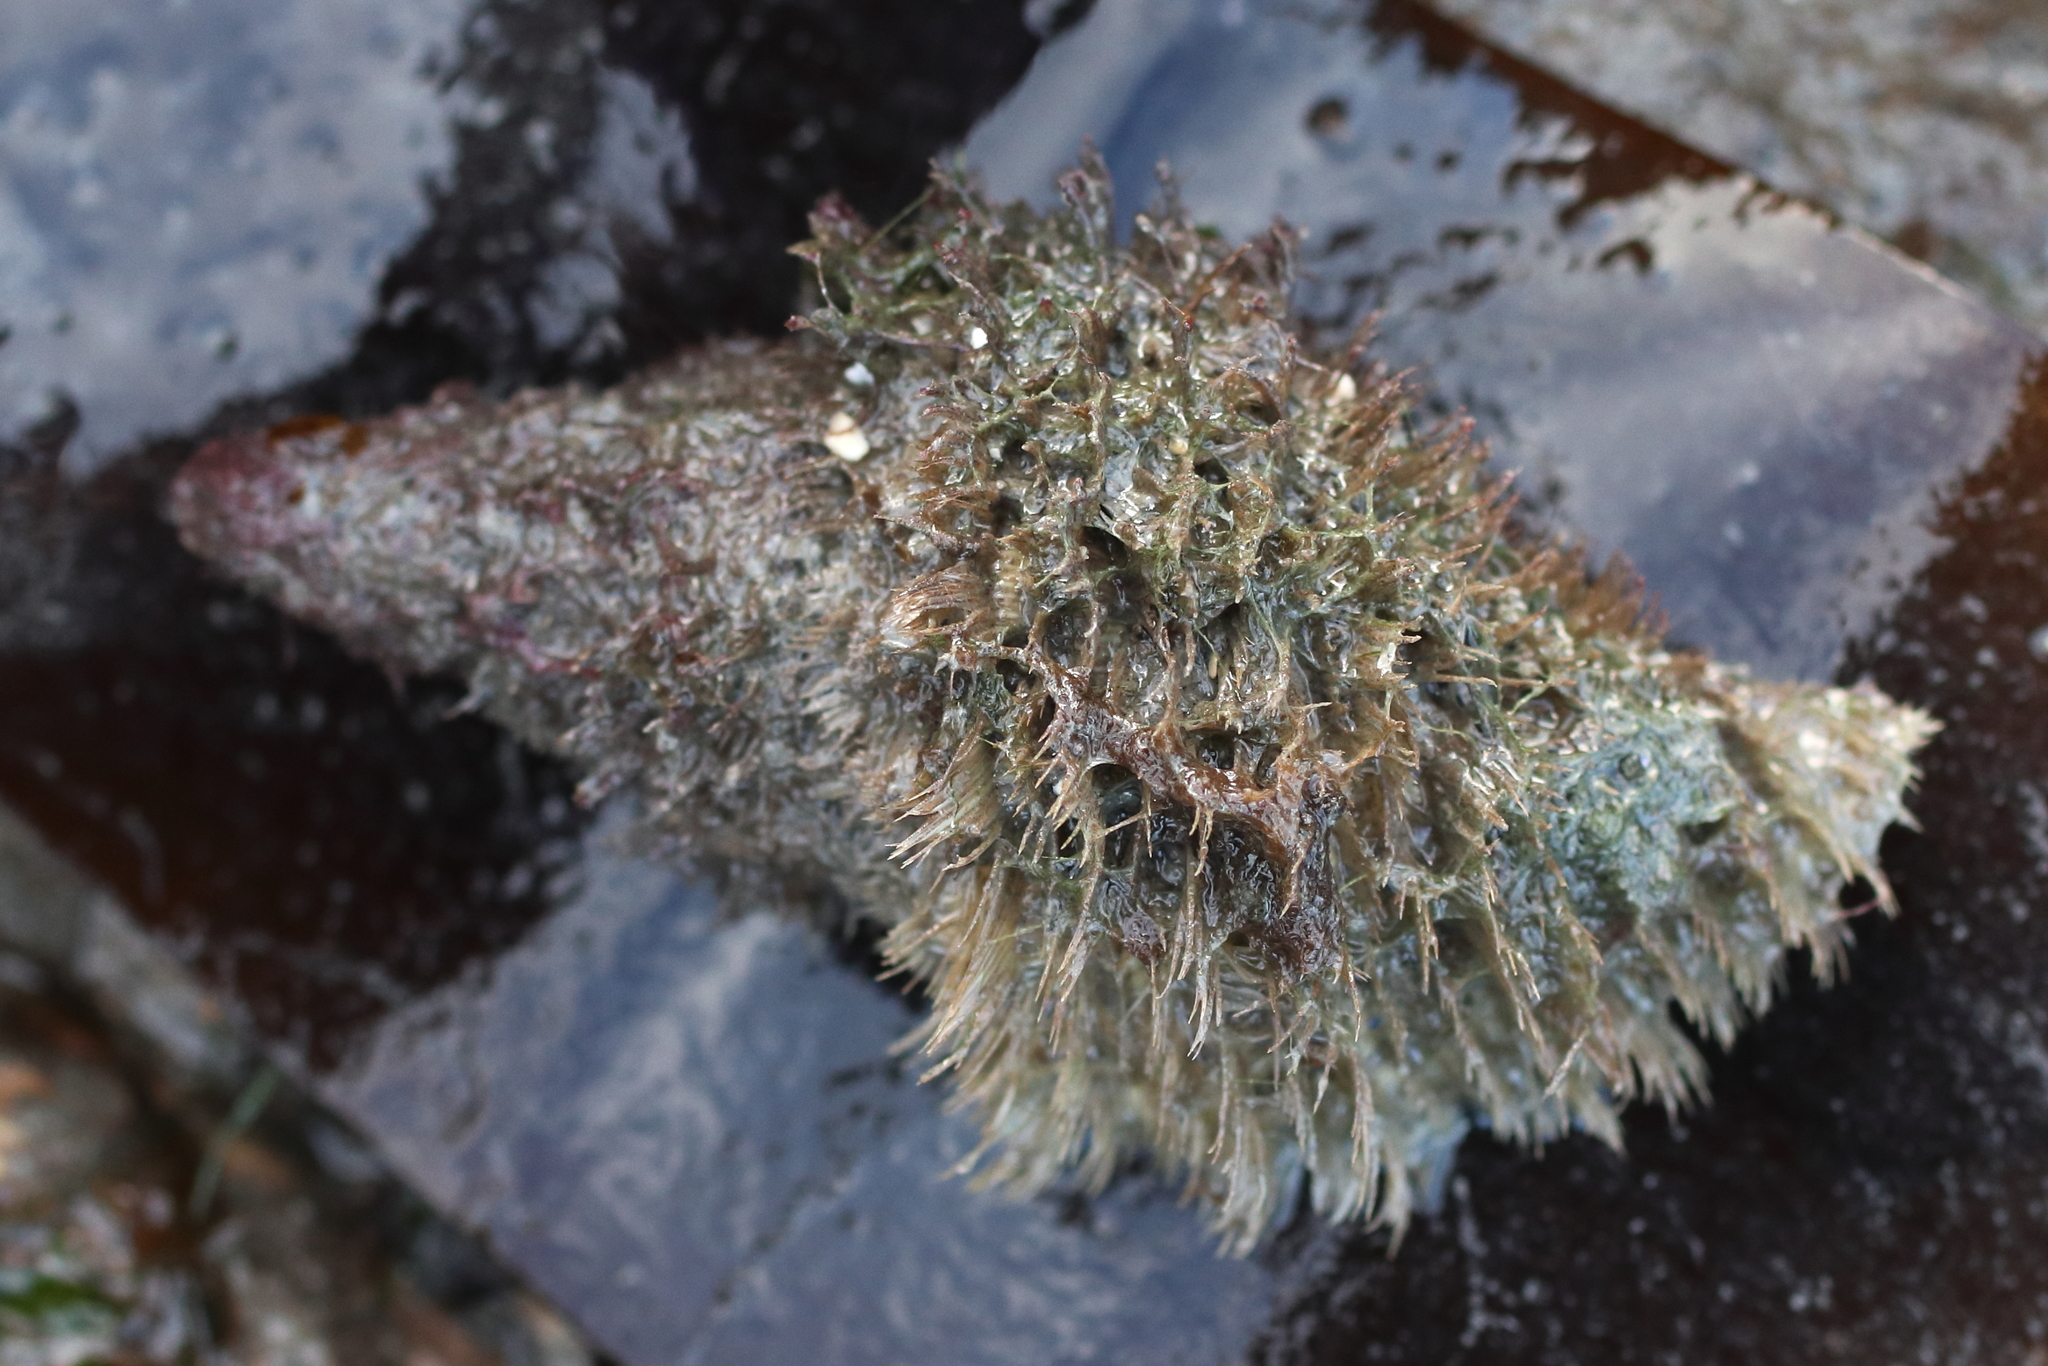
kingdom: Animalia
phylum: Mollusca
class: Gastropoda
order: Littorinimorpha
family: Cymatiidae
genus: Fusitriton
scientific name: Fusitriton oregonensis
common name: Oregon hairy triton
